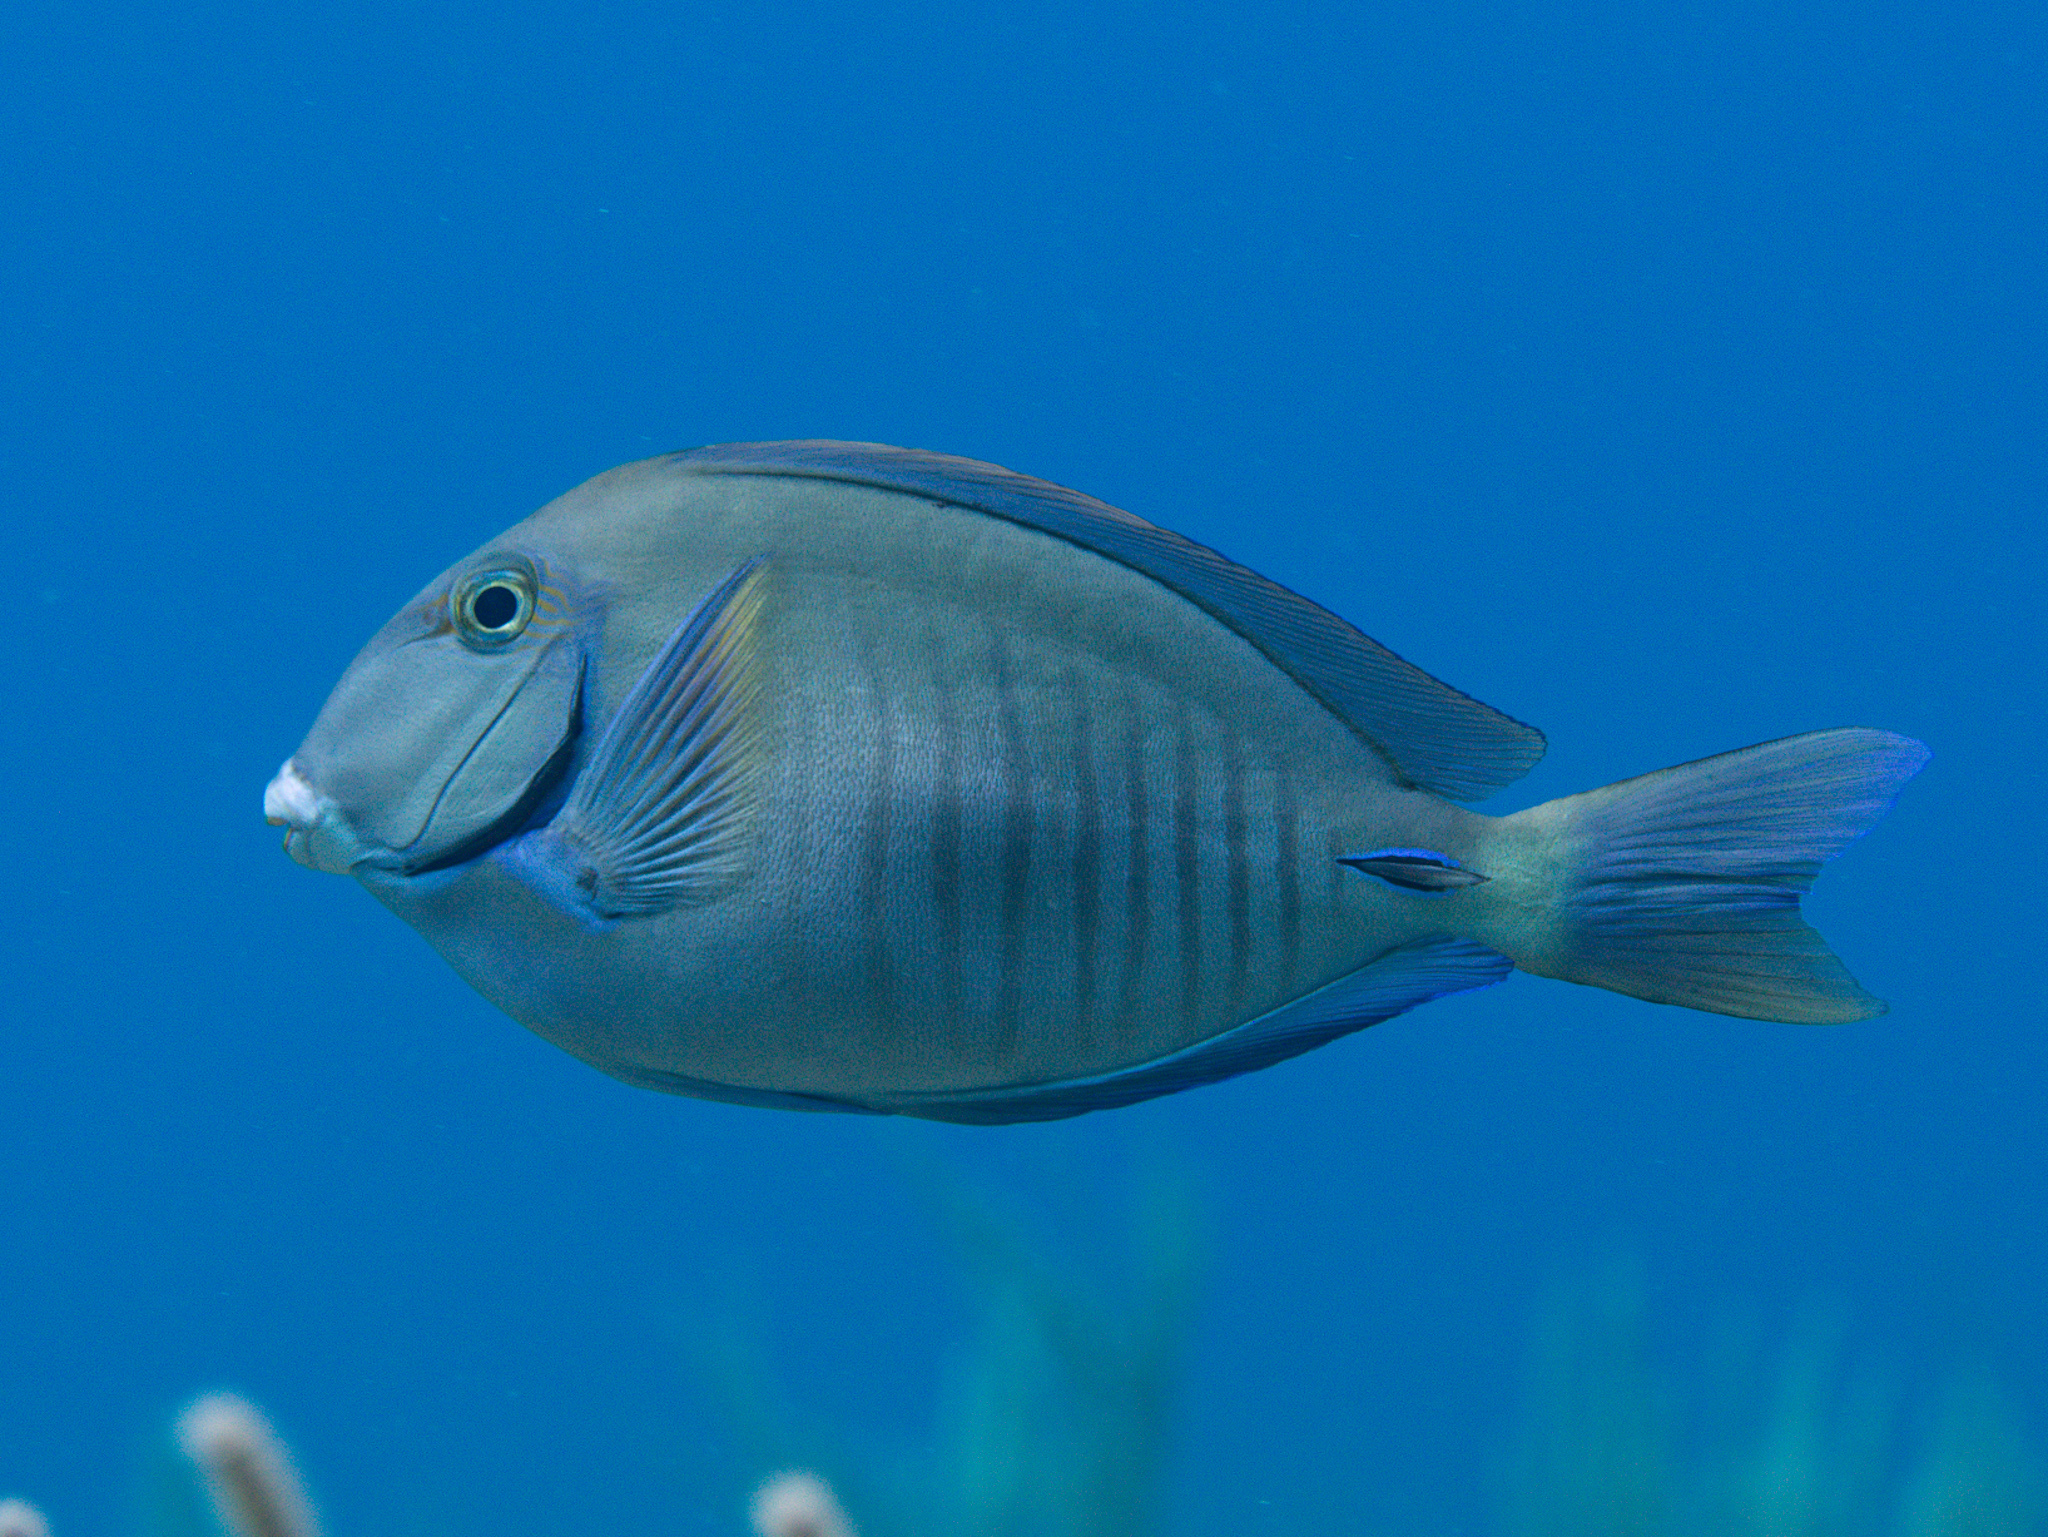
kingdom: Animalia
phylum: Chordata
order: Perciformes
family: Acanthuridae
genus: Acanthurus
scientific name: Acanthurus chirurgus
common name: Doctorfish
